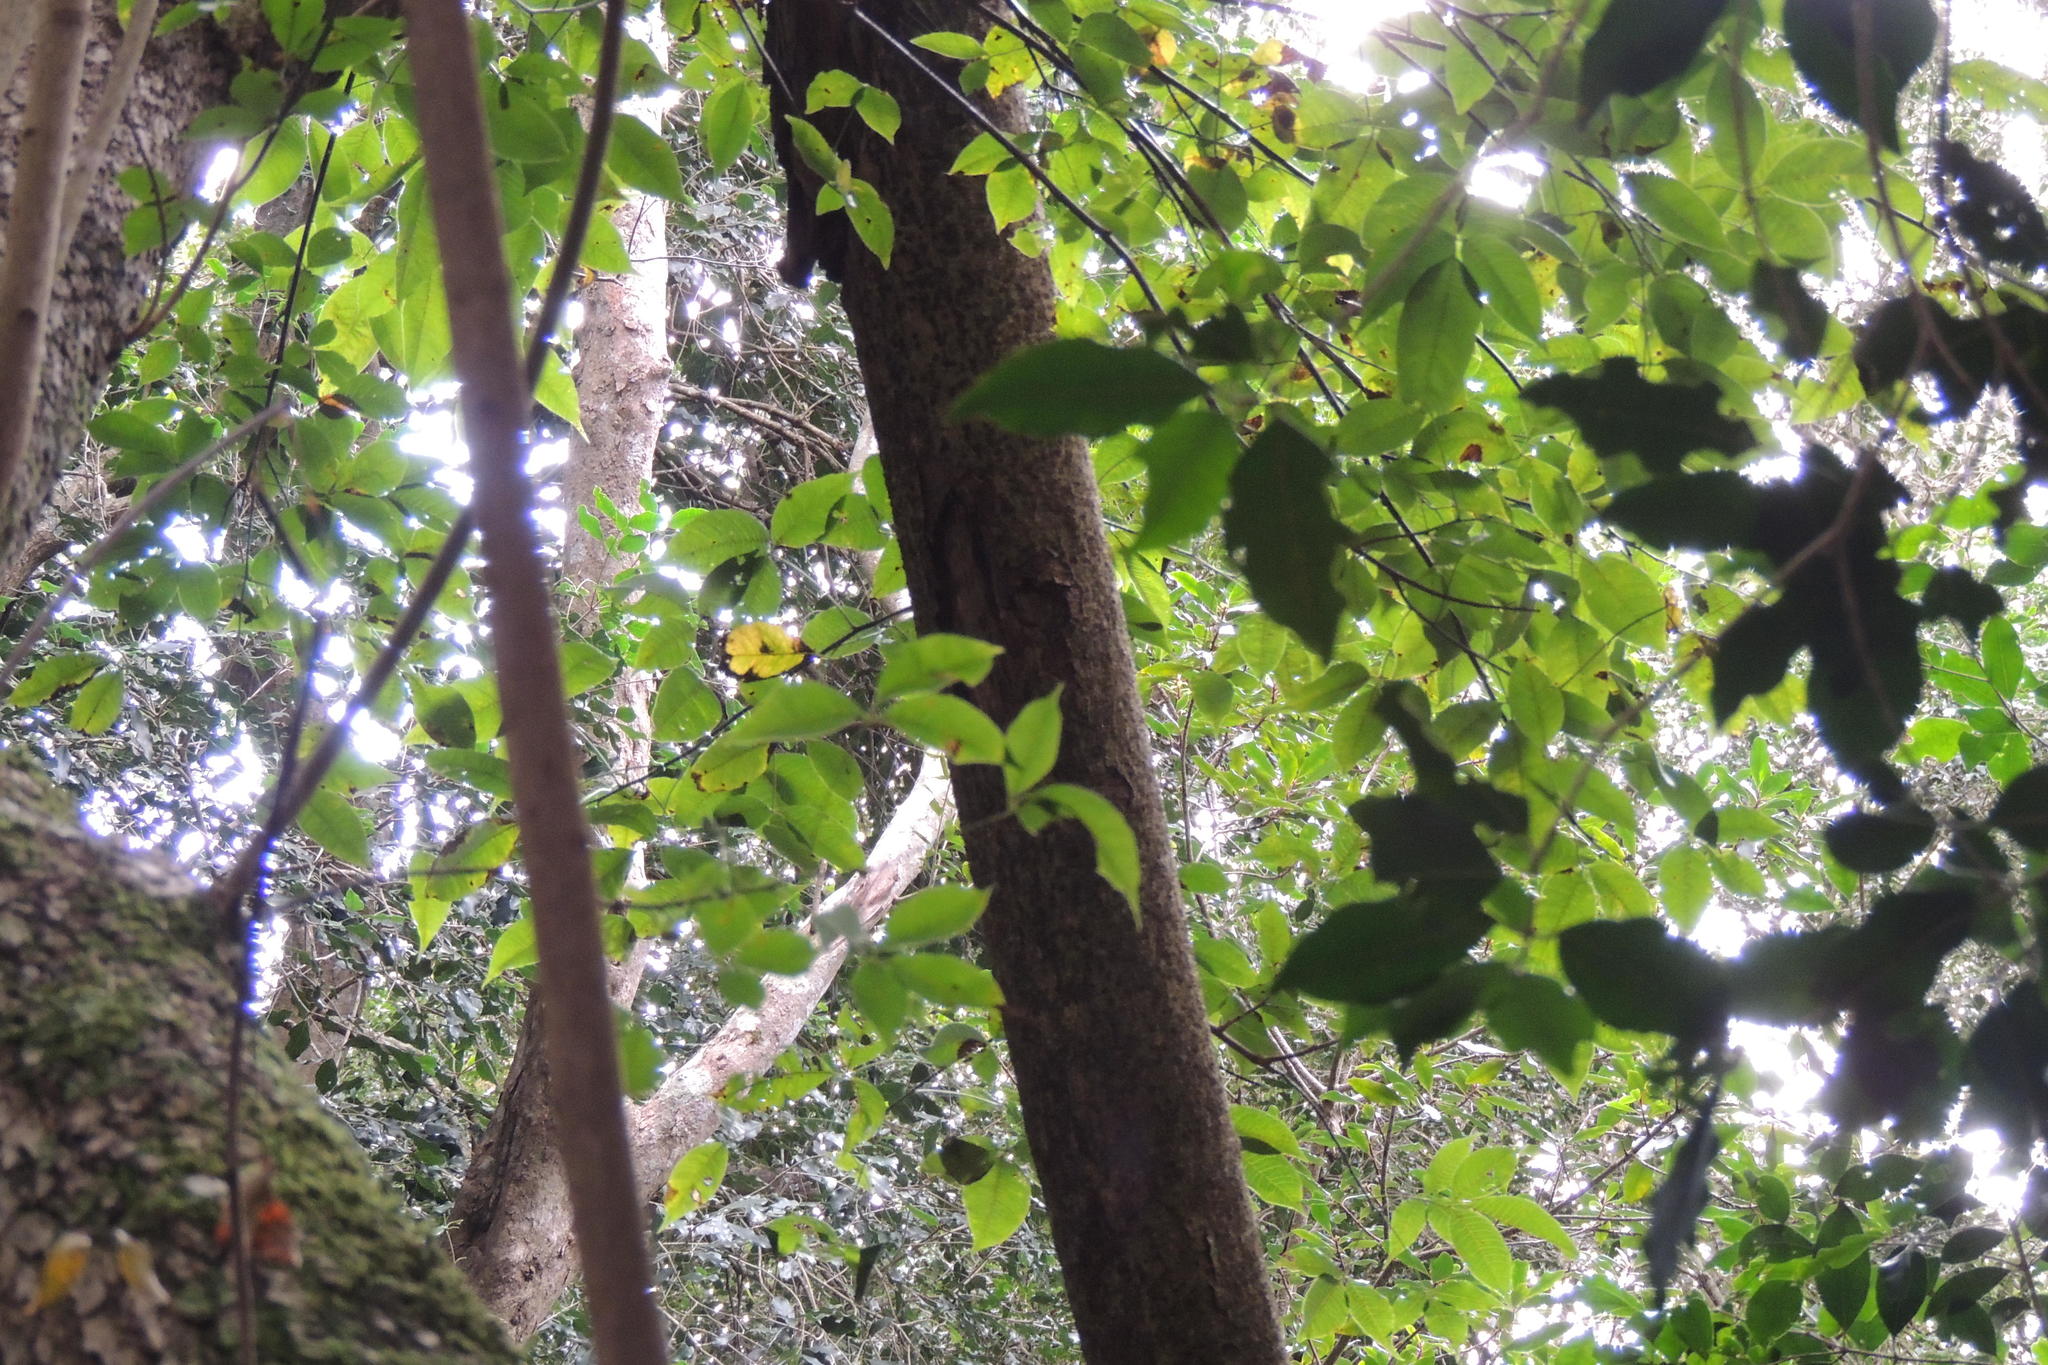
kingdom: Plantae
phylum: Tracheophyta
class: Magnoliopsida
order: Sapindales
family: Anacardiaceae
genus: Searsia
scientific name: Searsia chirindensis
